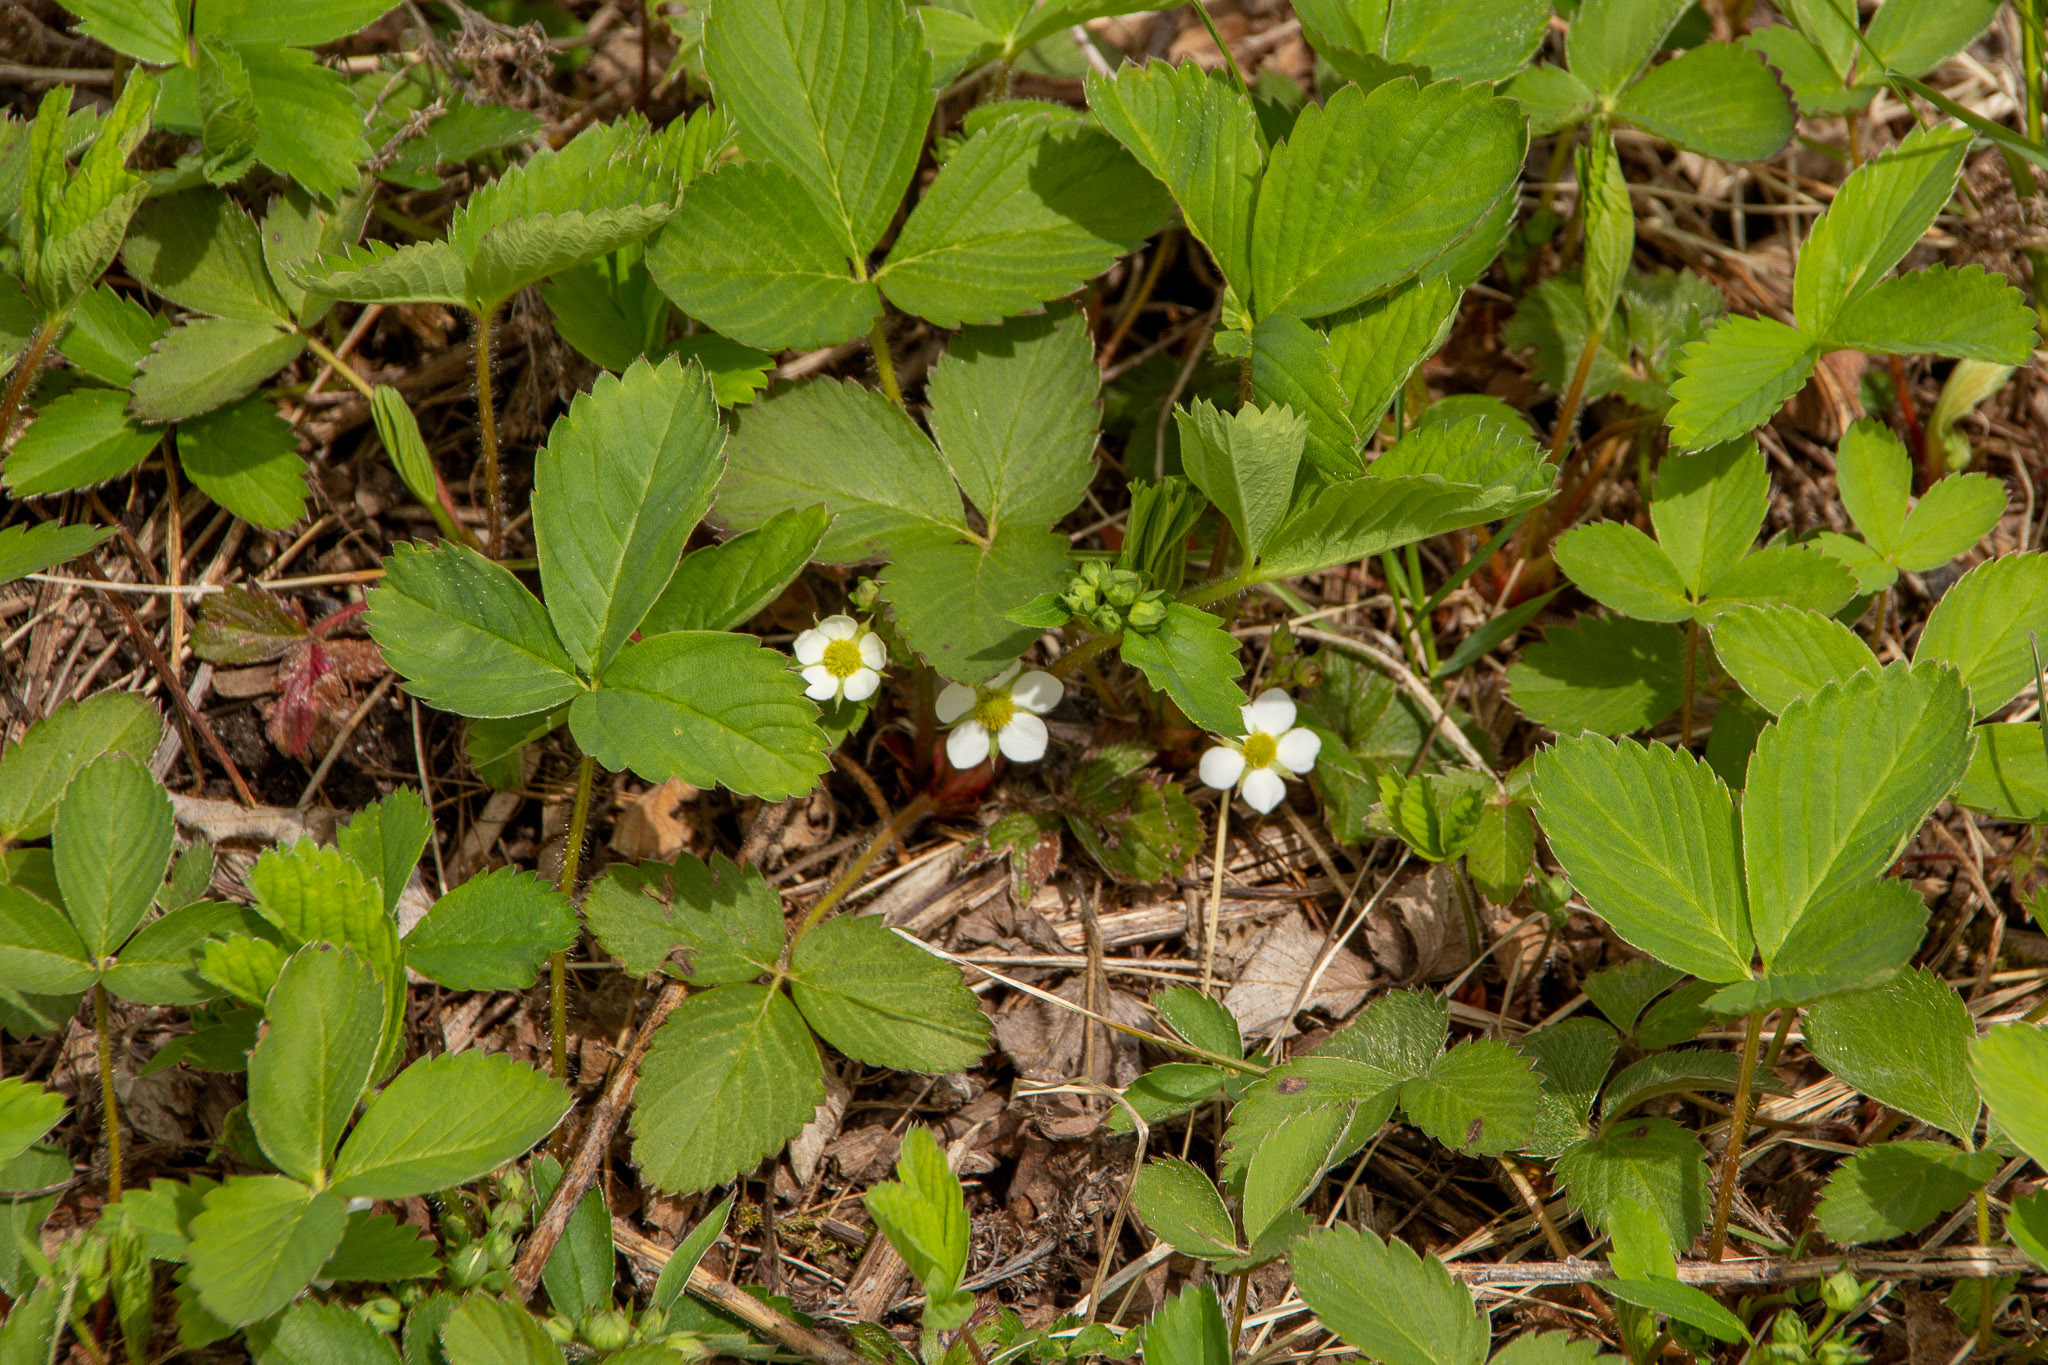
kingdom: Plantae
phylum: Tracheophyta
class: Magnoliopsida
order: Rosales
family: Rosaceae
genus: Fragaria
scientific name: Fragaria virginiana
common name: Thickleaved wild strawberry
